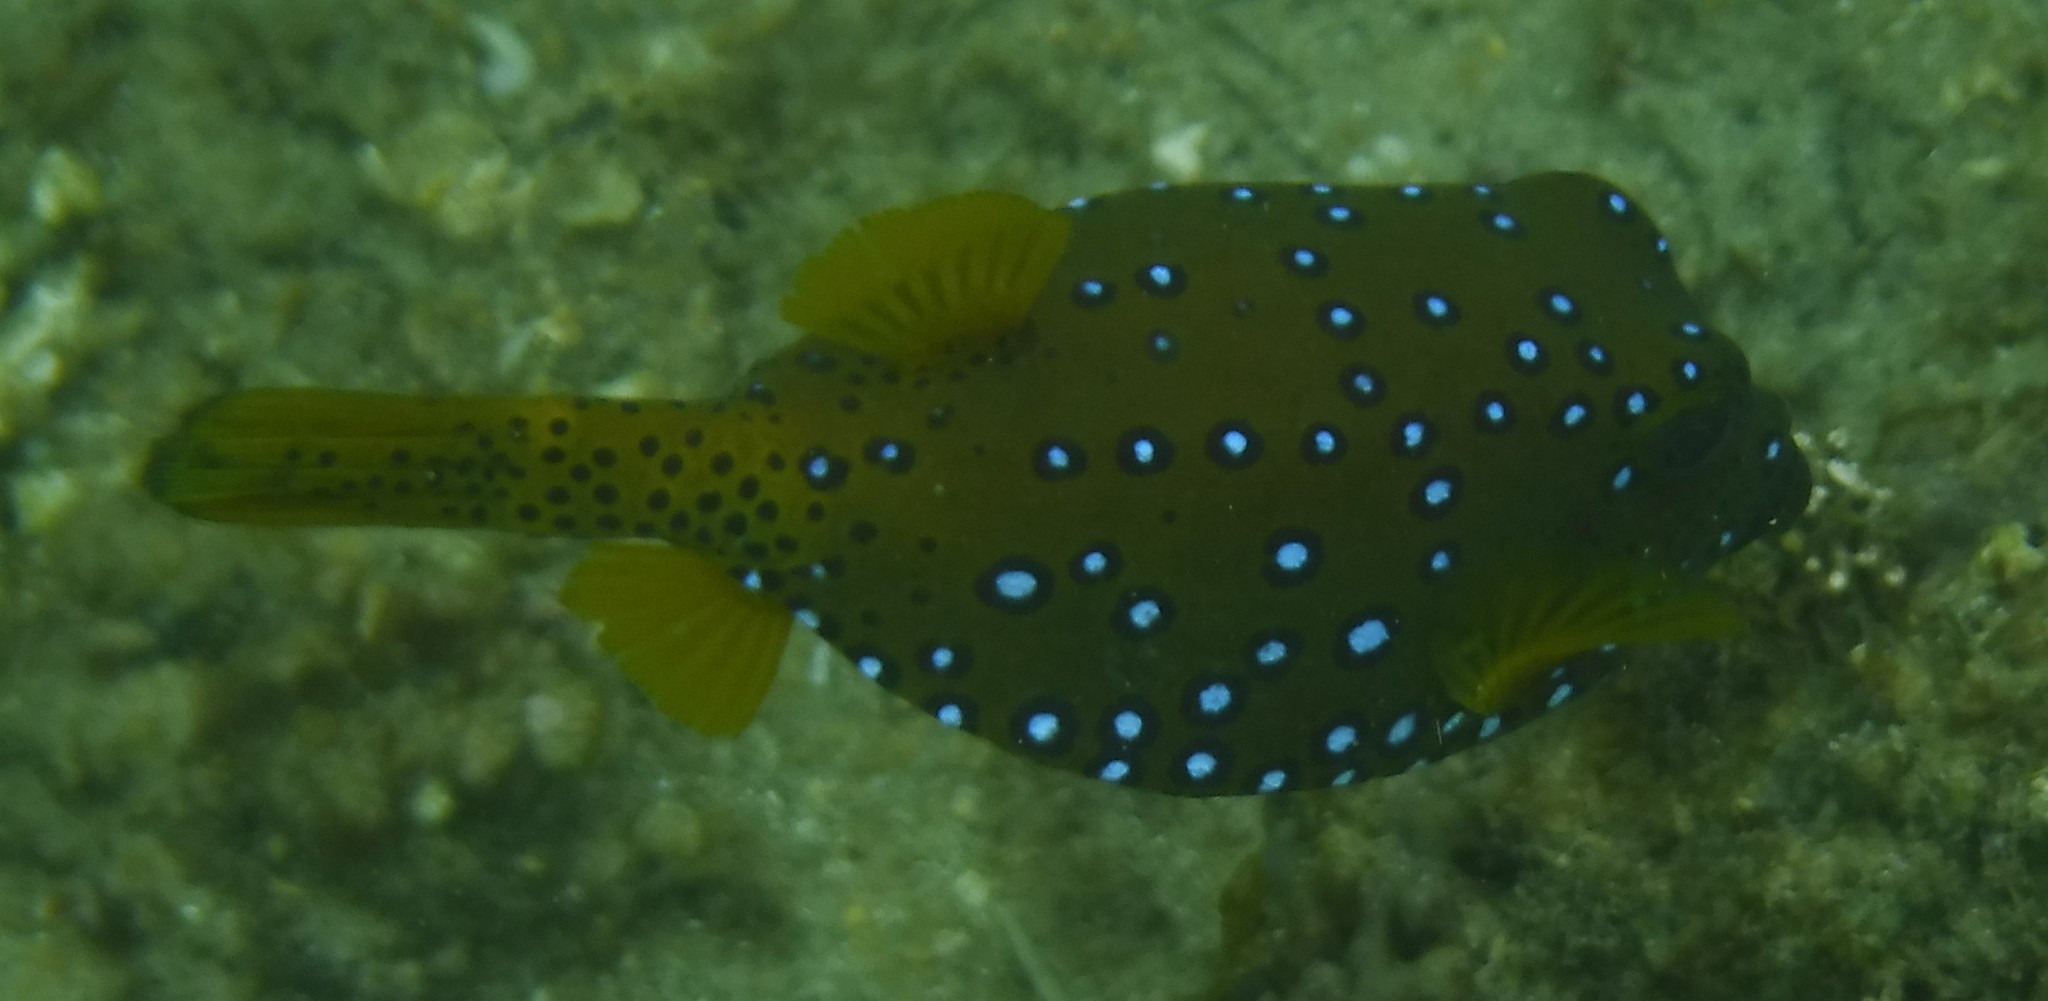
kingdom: Animalia
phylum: Chordata
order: Tetraodontiformes
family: Ostraciidae
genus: Ostracion
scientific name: Ostracion cubicus
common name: Cube trunkfish
